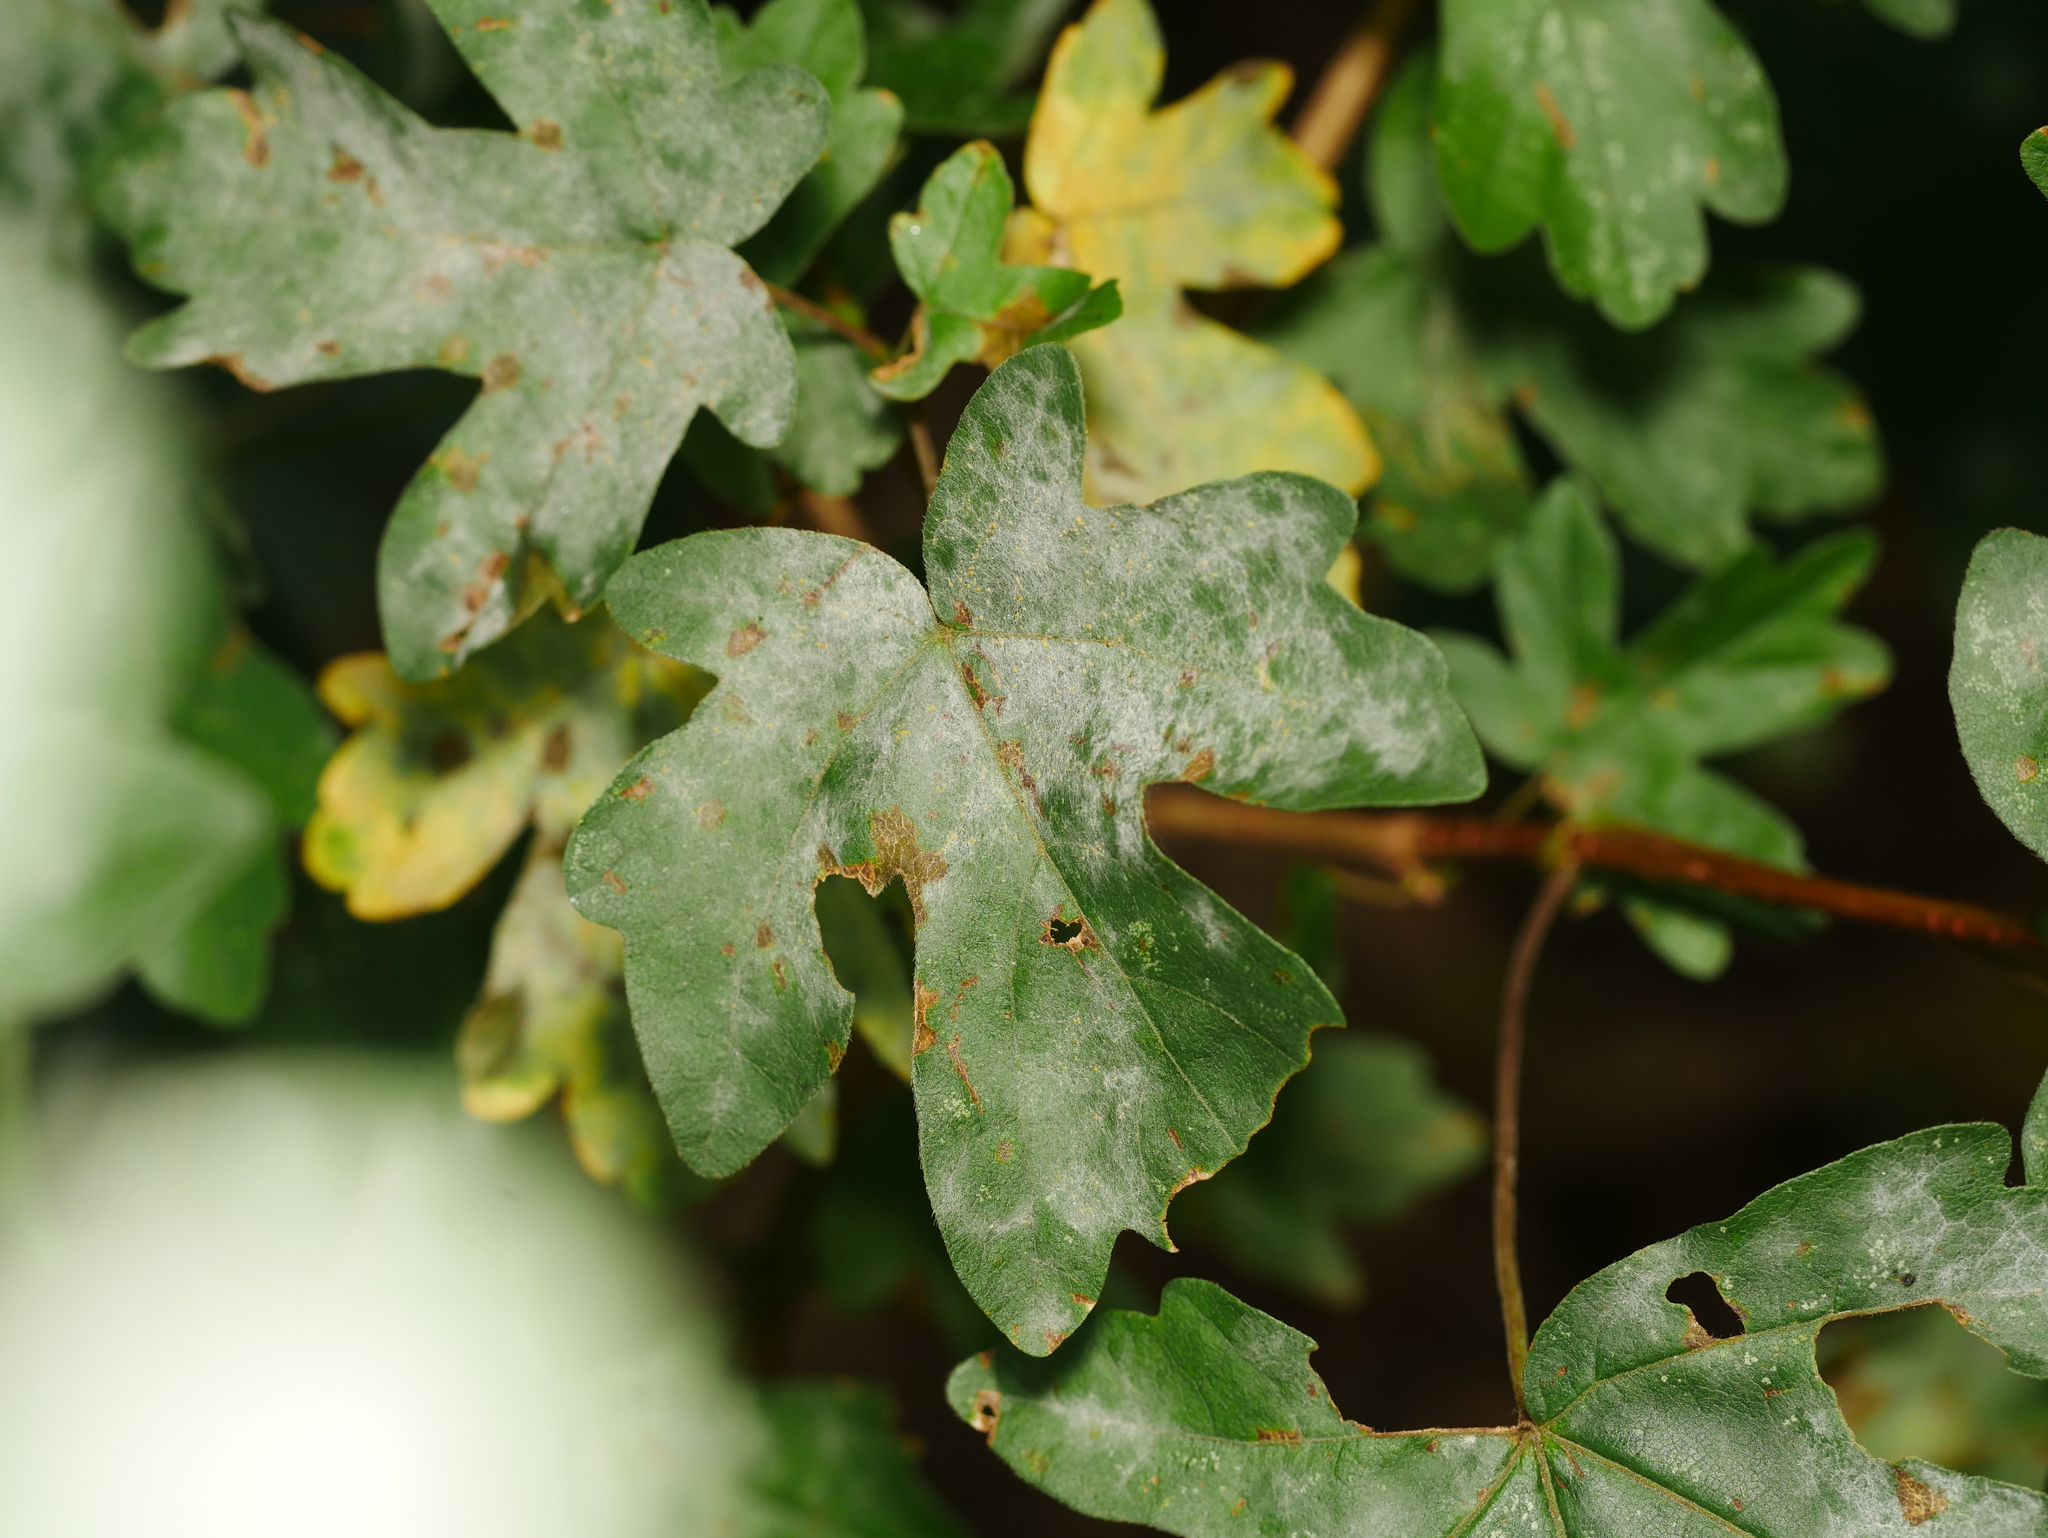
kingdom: Fungi
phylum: Ascomycota
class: Leotiomycetes
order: Helotiales
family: Erysiphaceae
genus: Sawadaea
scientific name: Sawadaea bicornis
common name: Maple mildew
